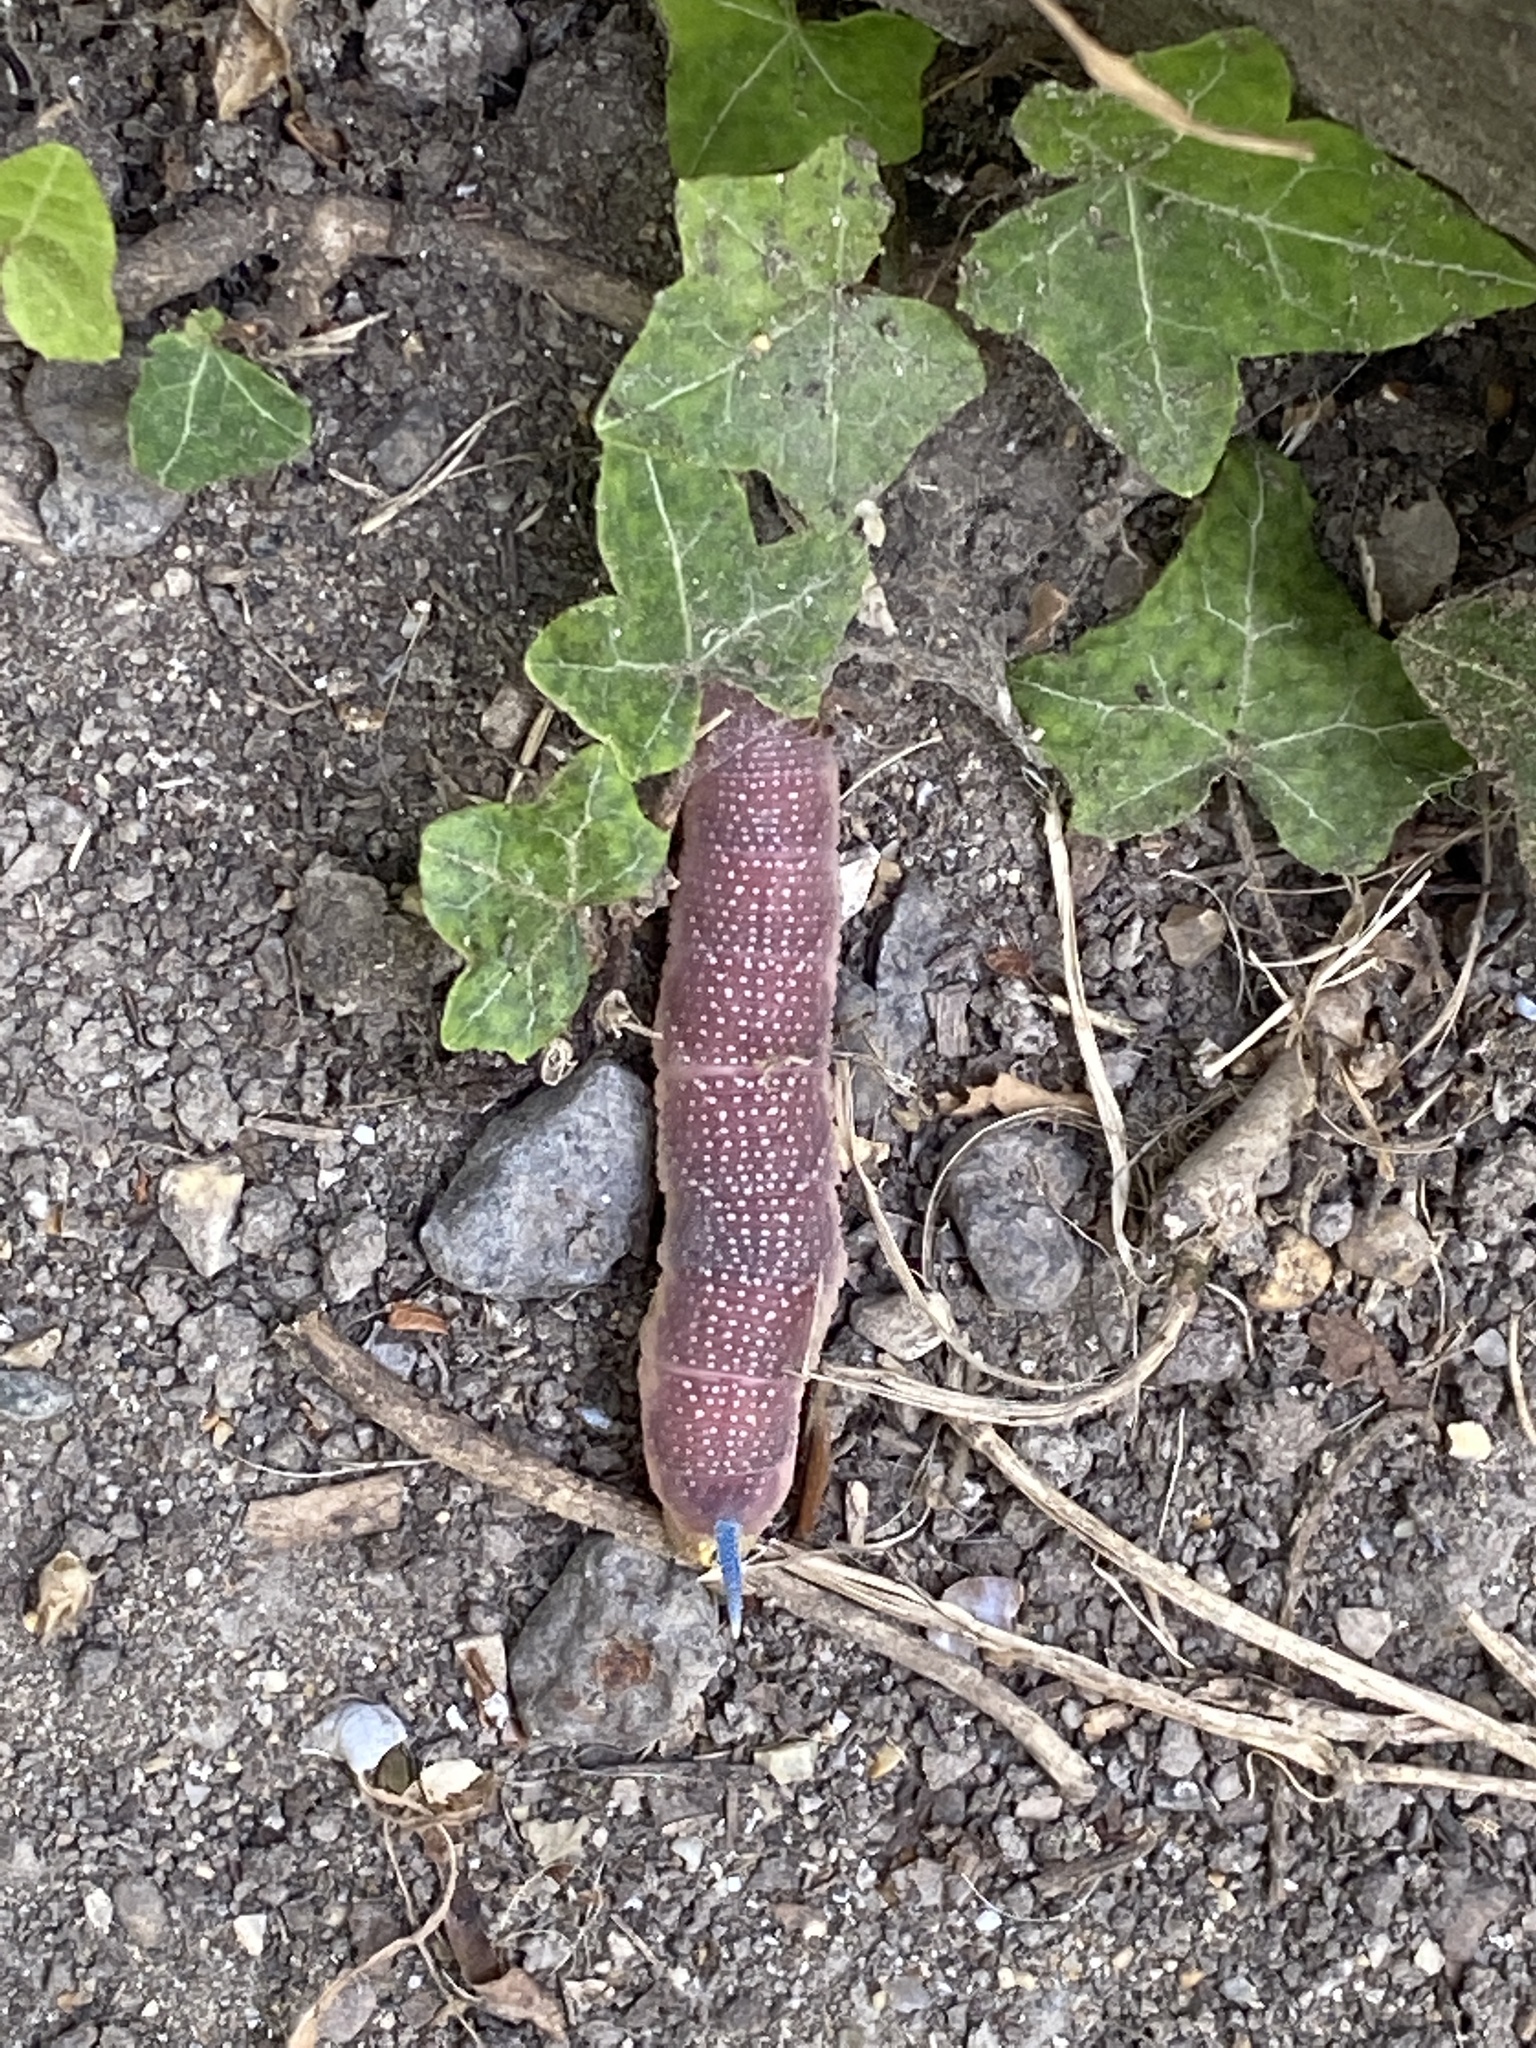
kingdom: Animalia
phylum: Arthropoda
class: Insecta
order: Lepidoptera
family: Sphingidae
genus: Mimas
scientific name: Mimas tiliae
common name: Lime hawk-moth
